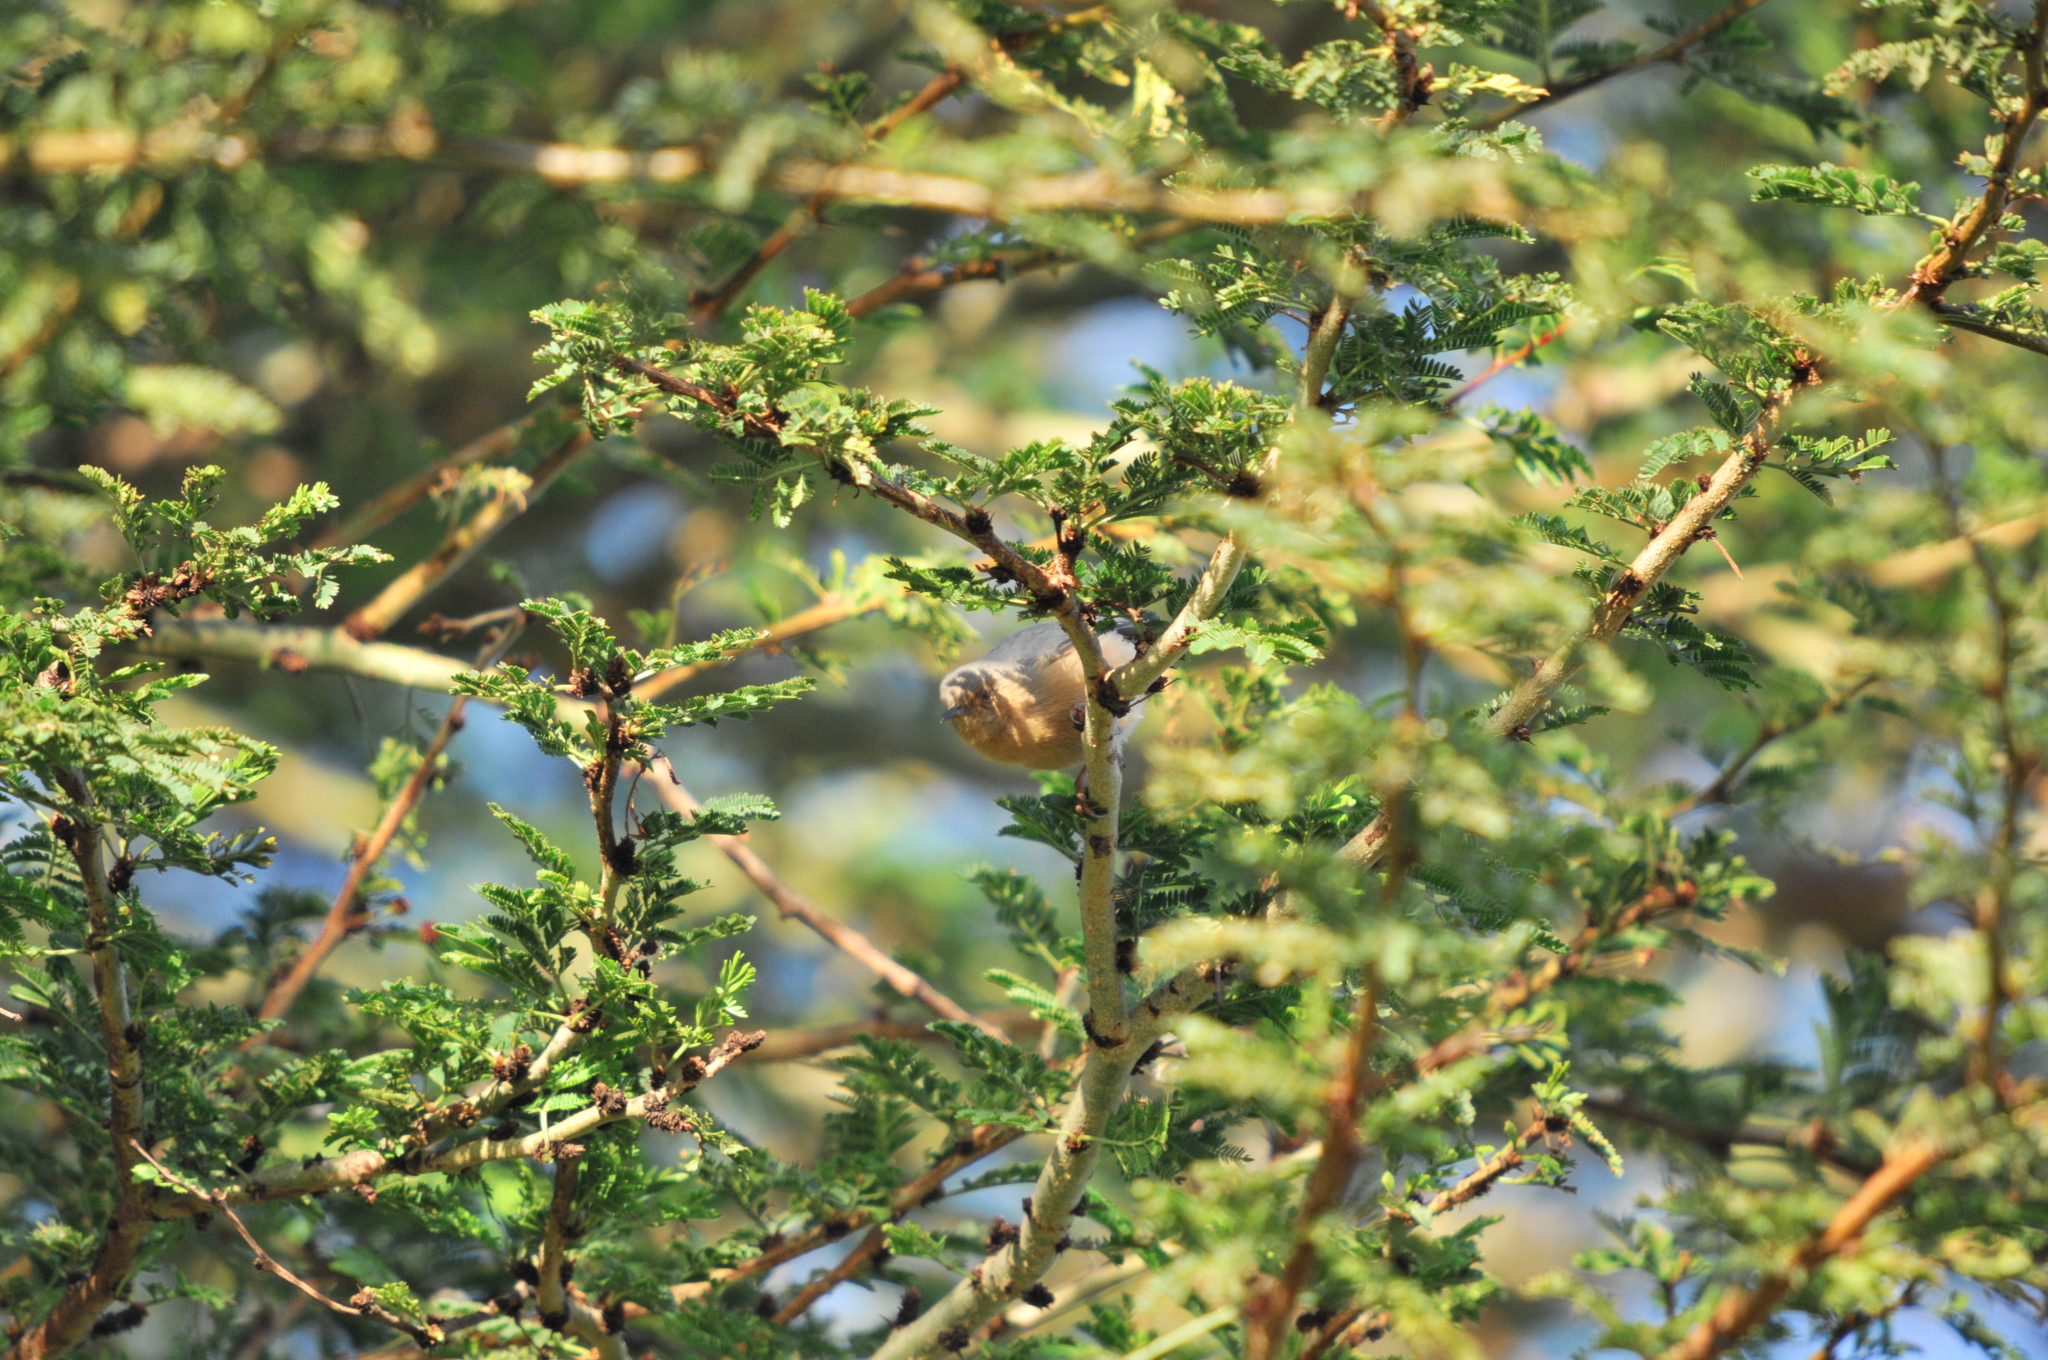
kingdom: Animalia
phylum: Chordata
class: Aves
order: Passeriformes
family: Macrosphenidae
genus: Sylvietta
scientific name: Sylvietta whytii
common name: Red-faced crombec
